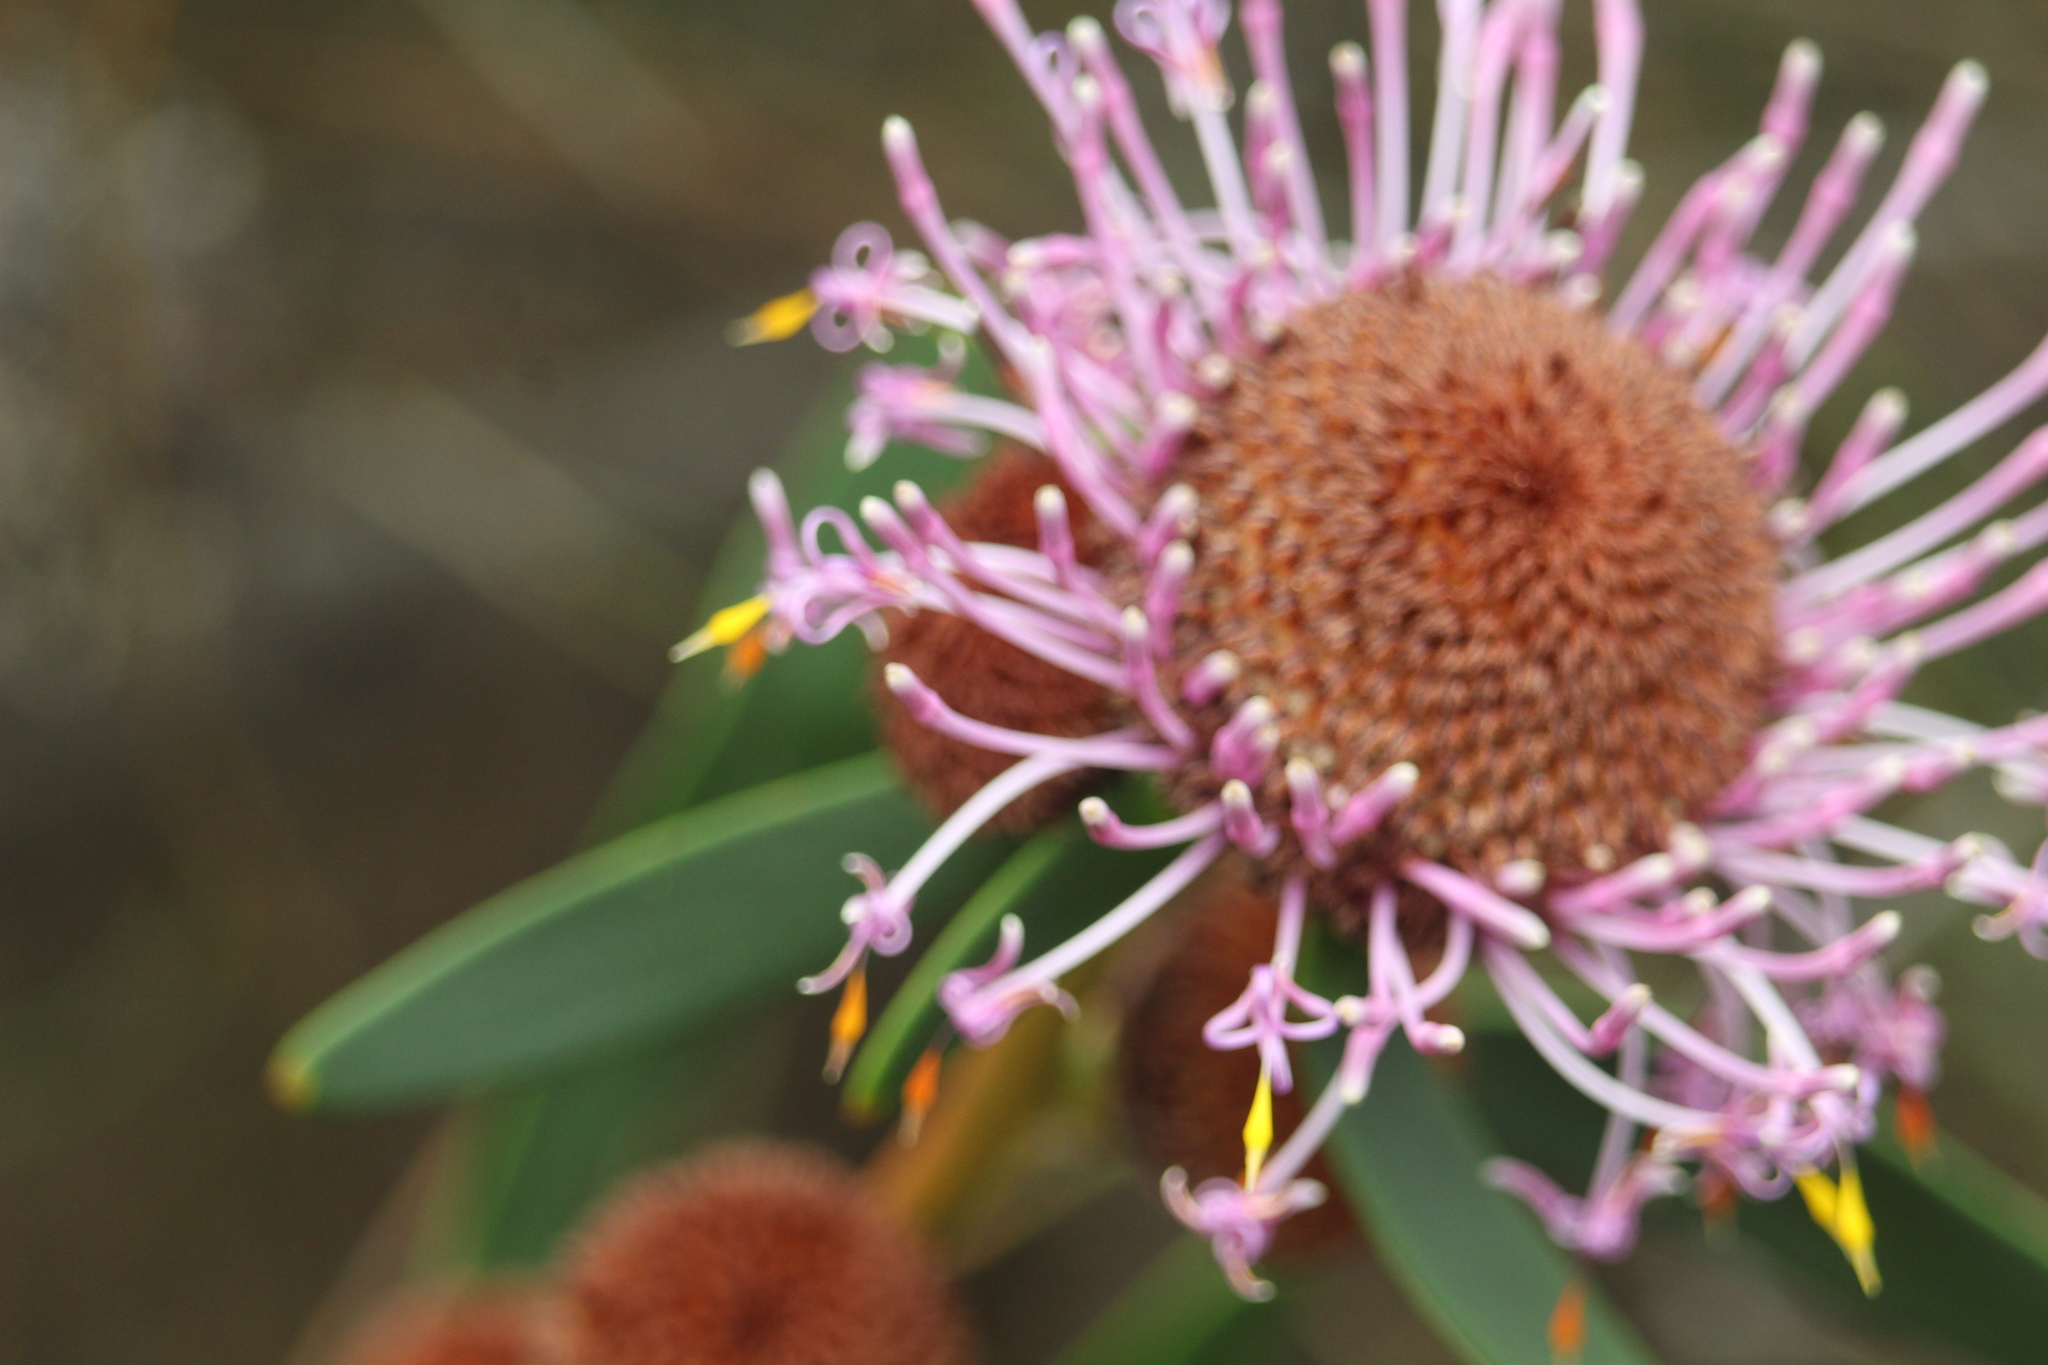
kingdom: Plantae
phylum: Tracheophyta
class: Magnoliopsida
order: Proteales
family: Proteaceae
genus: Isopogon
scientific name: Isopogon cuneatus
